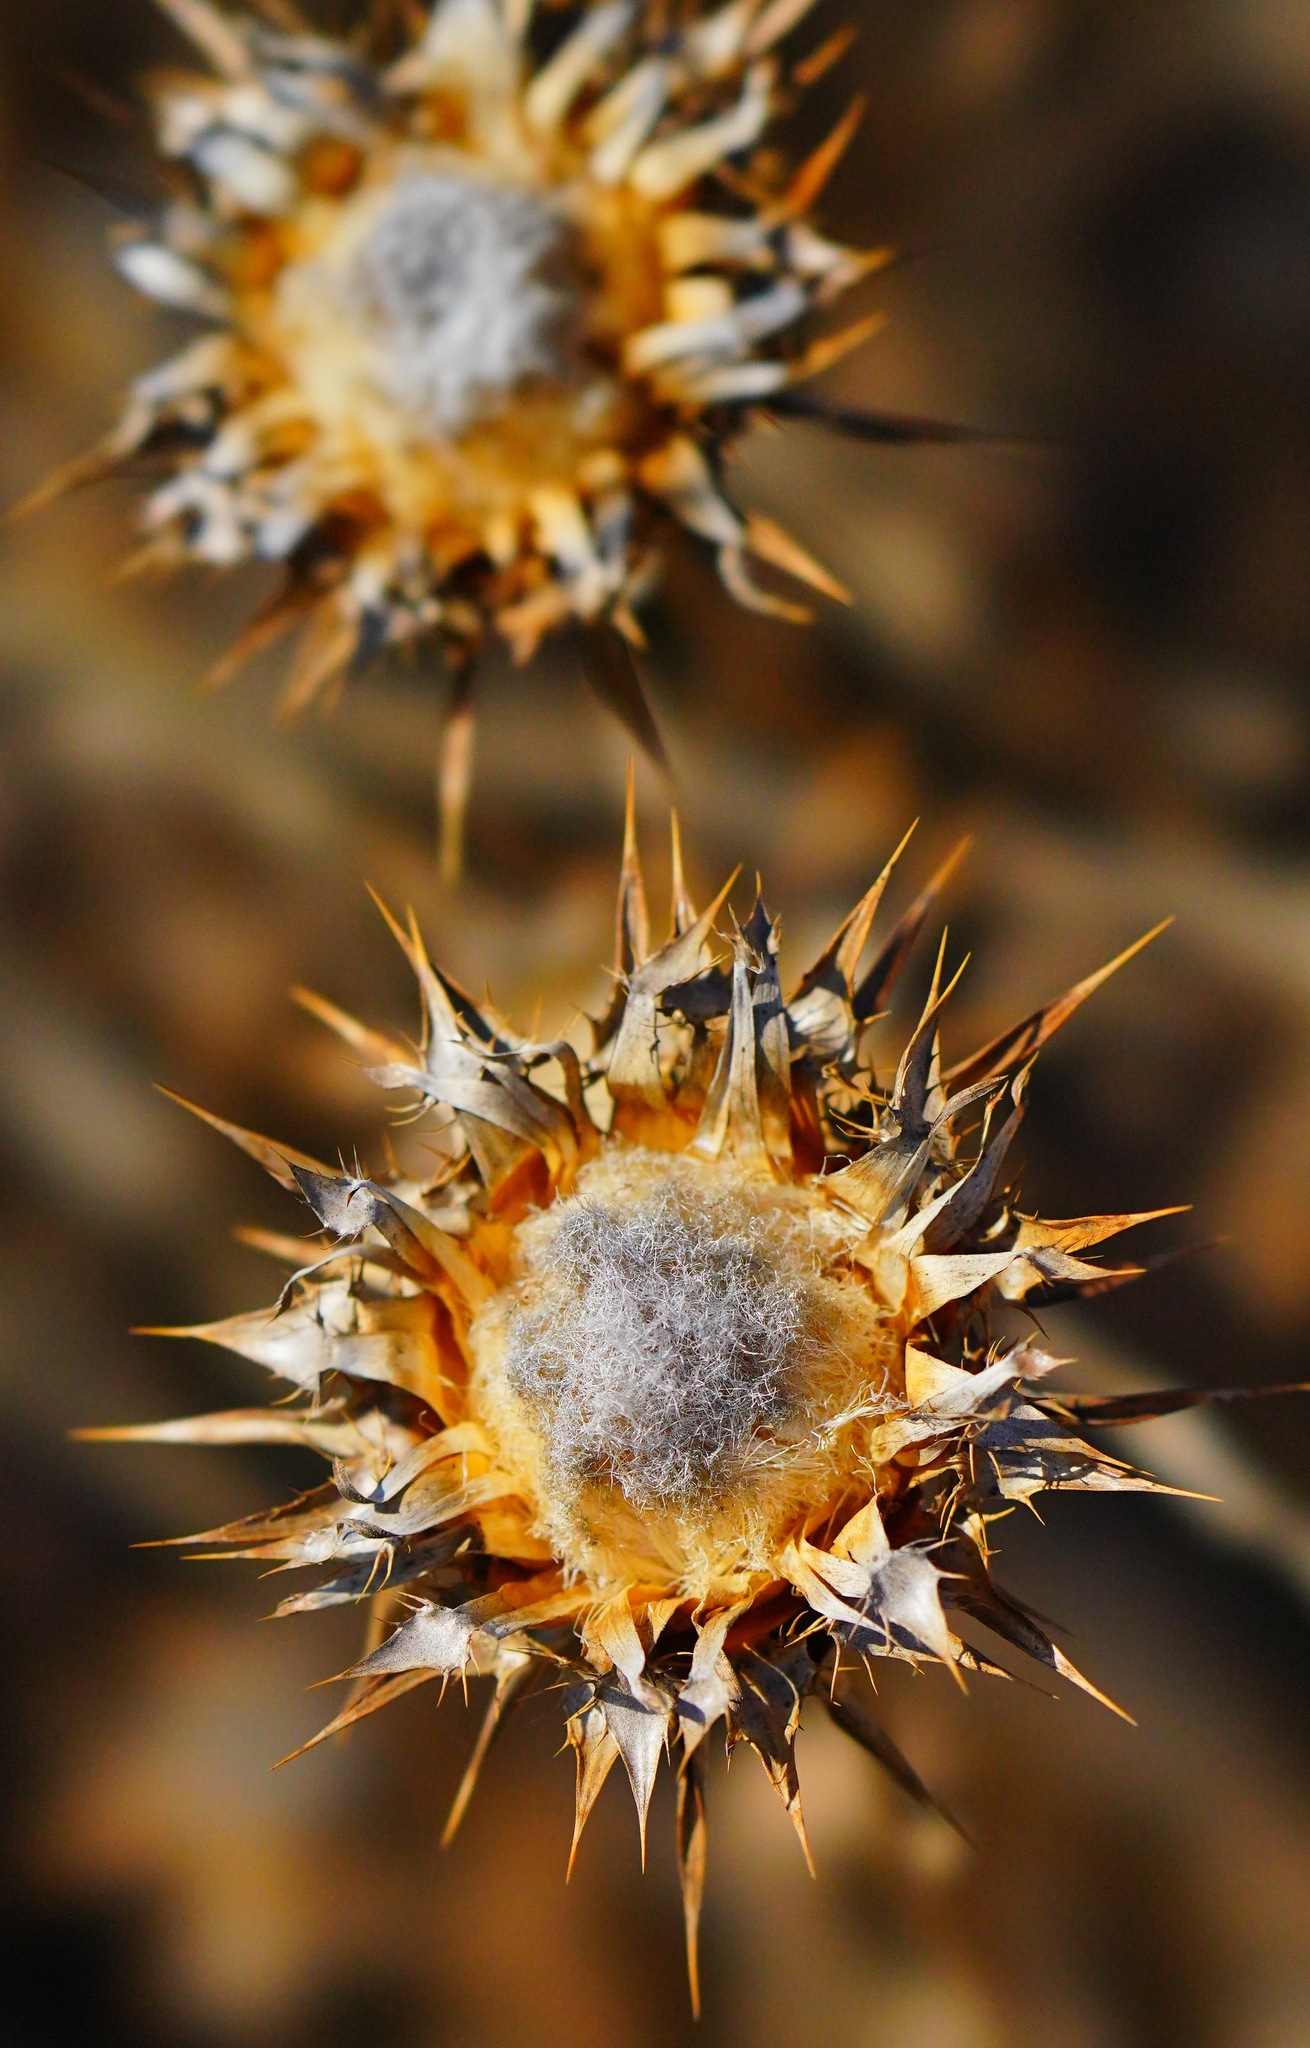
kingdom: Plantae
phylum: Tracheophyta
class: Magnoliopsida
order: Asterales
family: Asteraceae
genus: Silybum
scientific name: Silybum marianum
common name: Milk thistle
